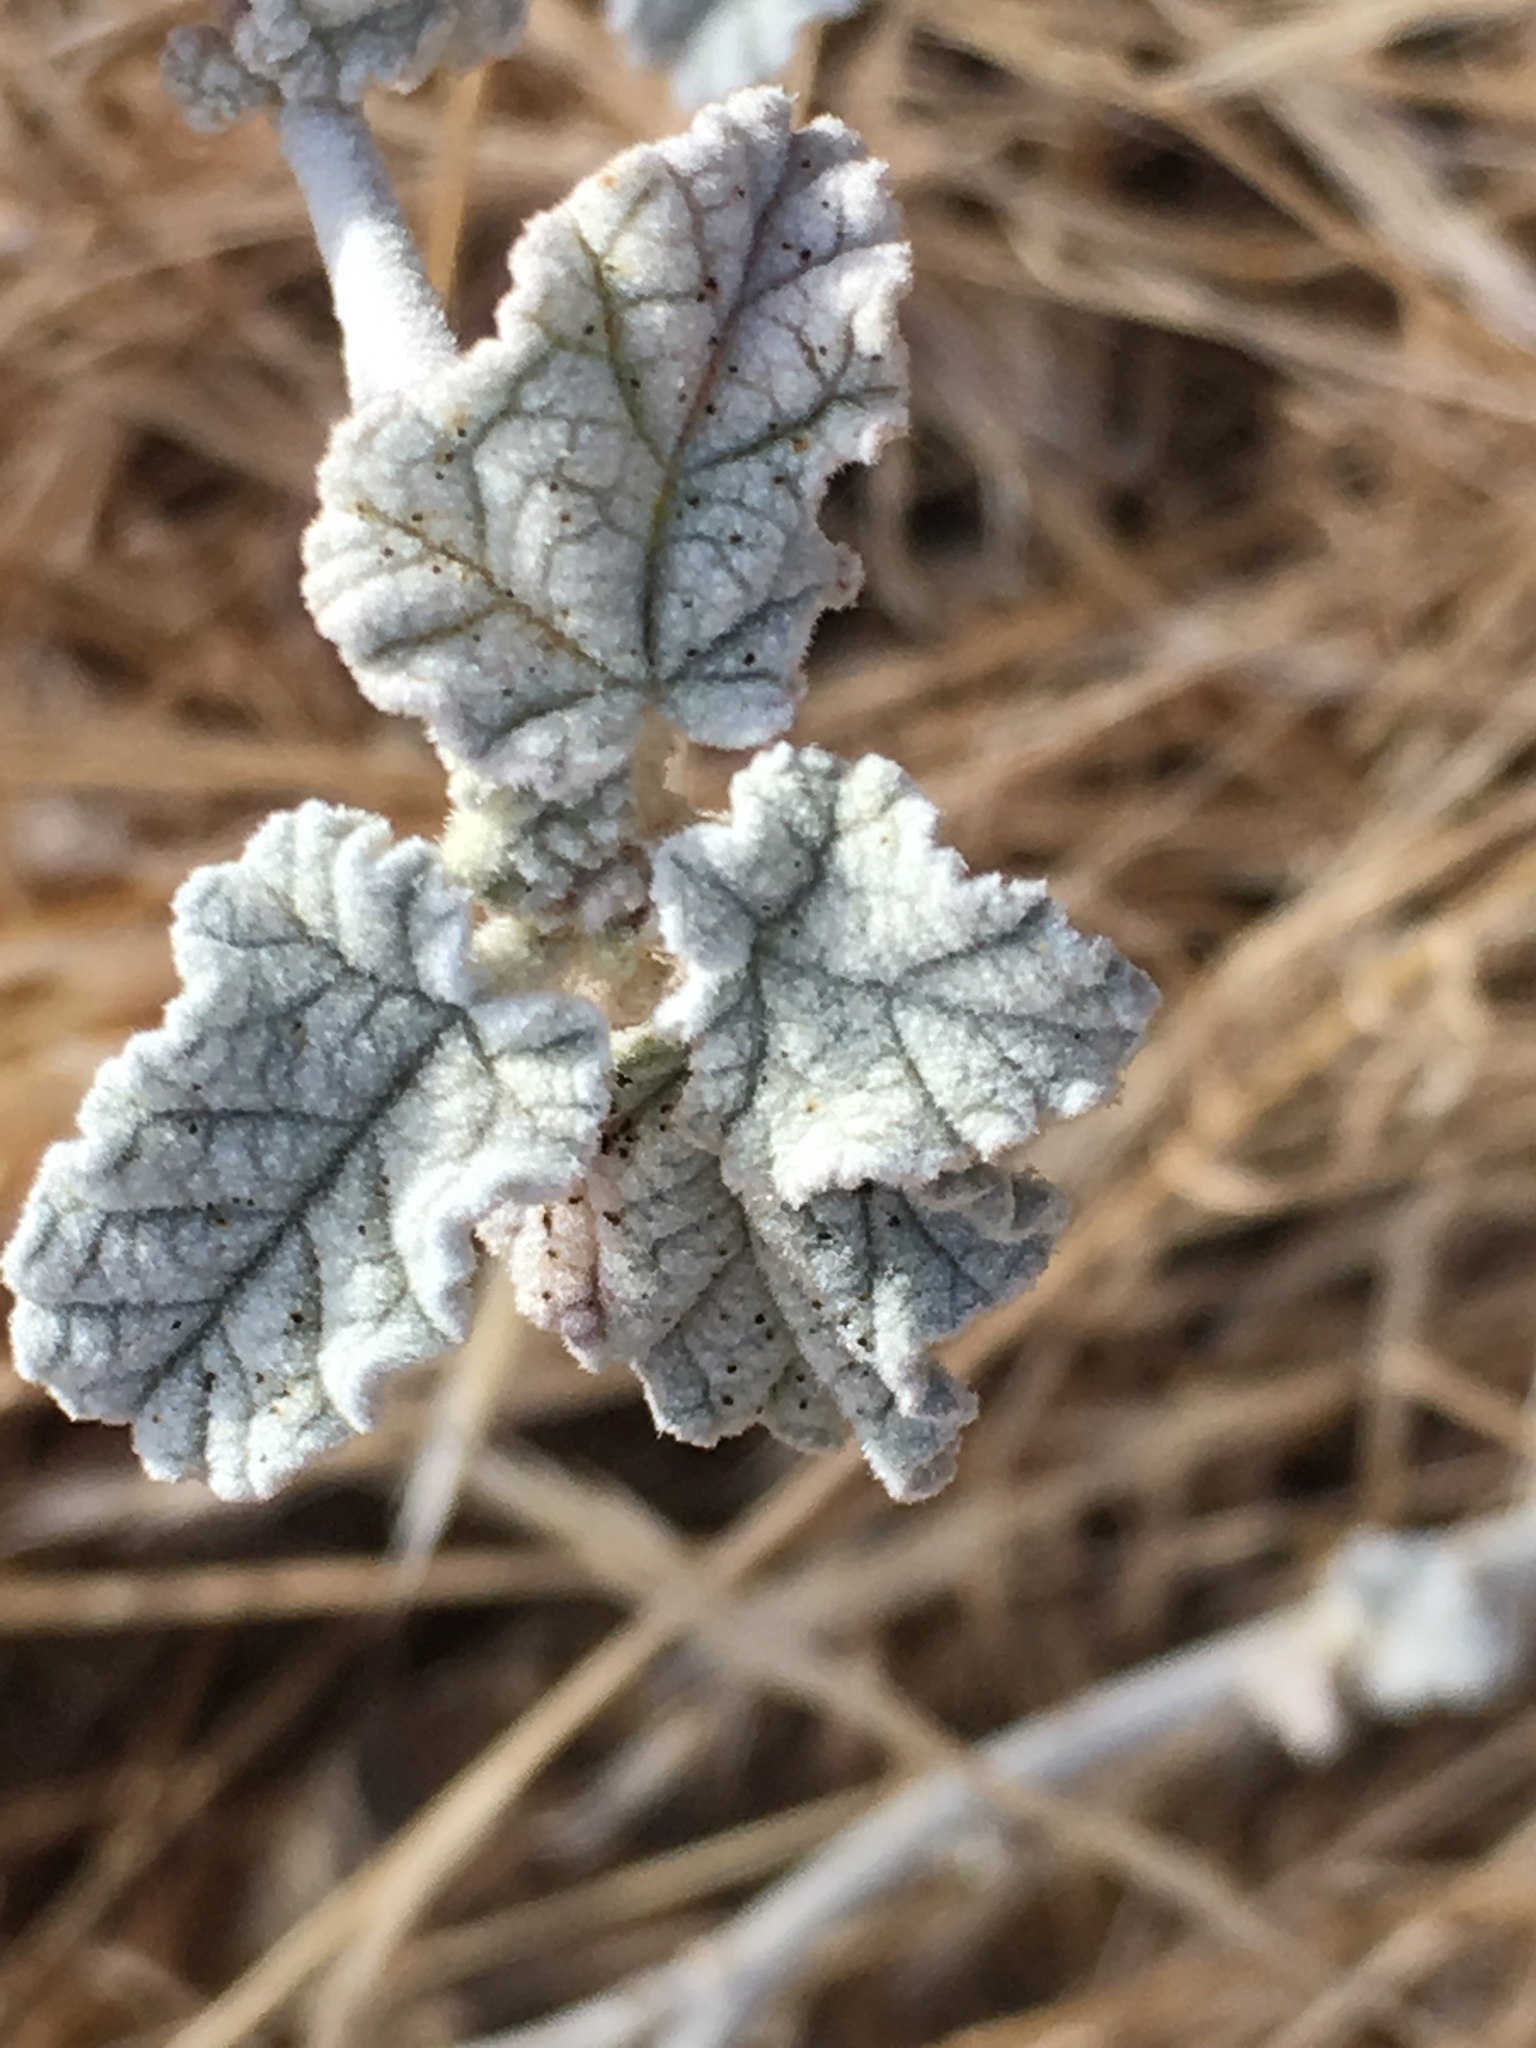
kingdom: Plantae
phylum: Tracheophyta
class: Magnoliopsida
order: Malvales
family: Malvaceae
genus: Sphaeralcea
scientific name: Sphaeralcea ambigua
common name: Apricot globe-mallow
